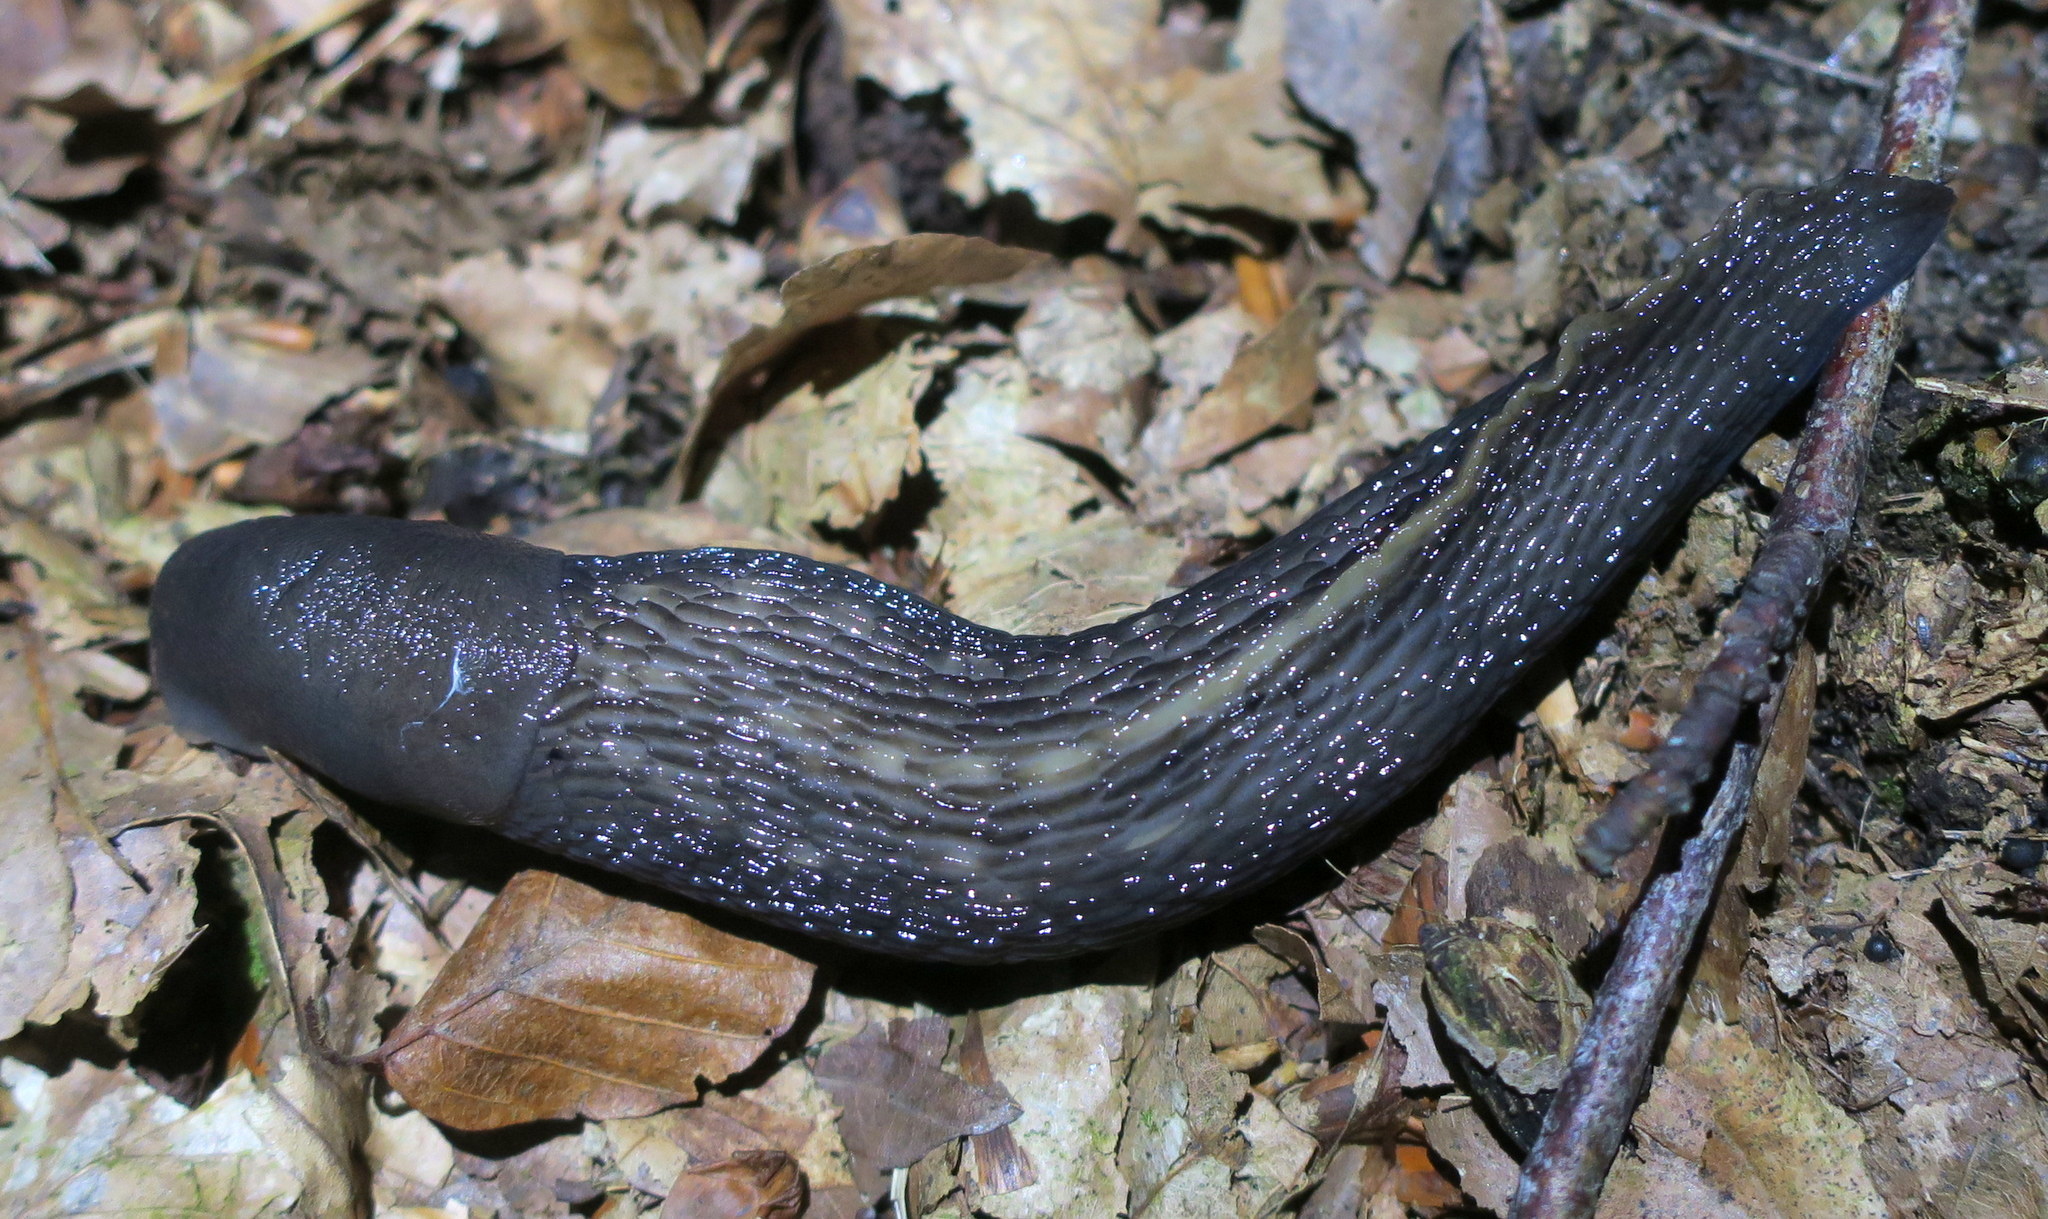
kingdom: Animalia
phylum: Mollusca
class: Gastropoda
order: Stylommatophora
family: Limacidae
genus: Limax
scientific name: Limax cinereoniger
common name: Ash-black slug
